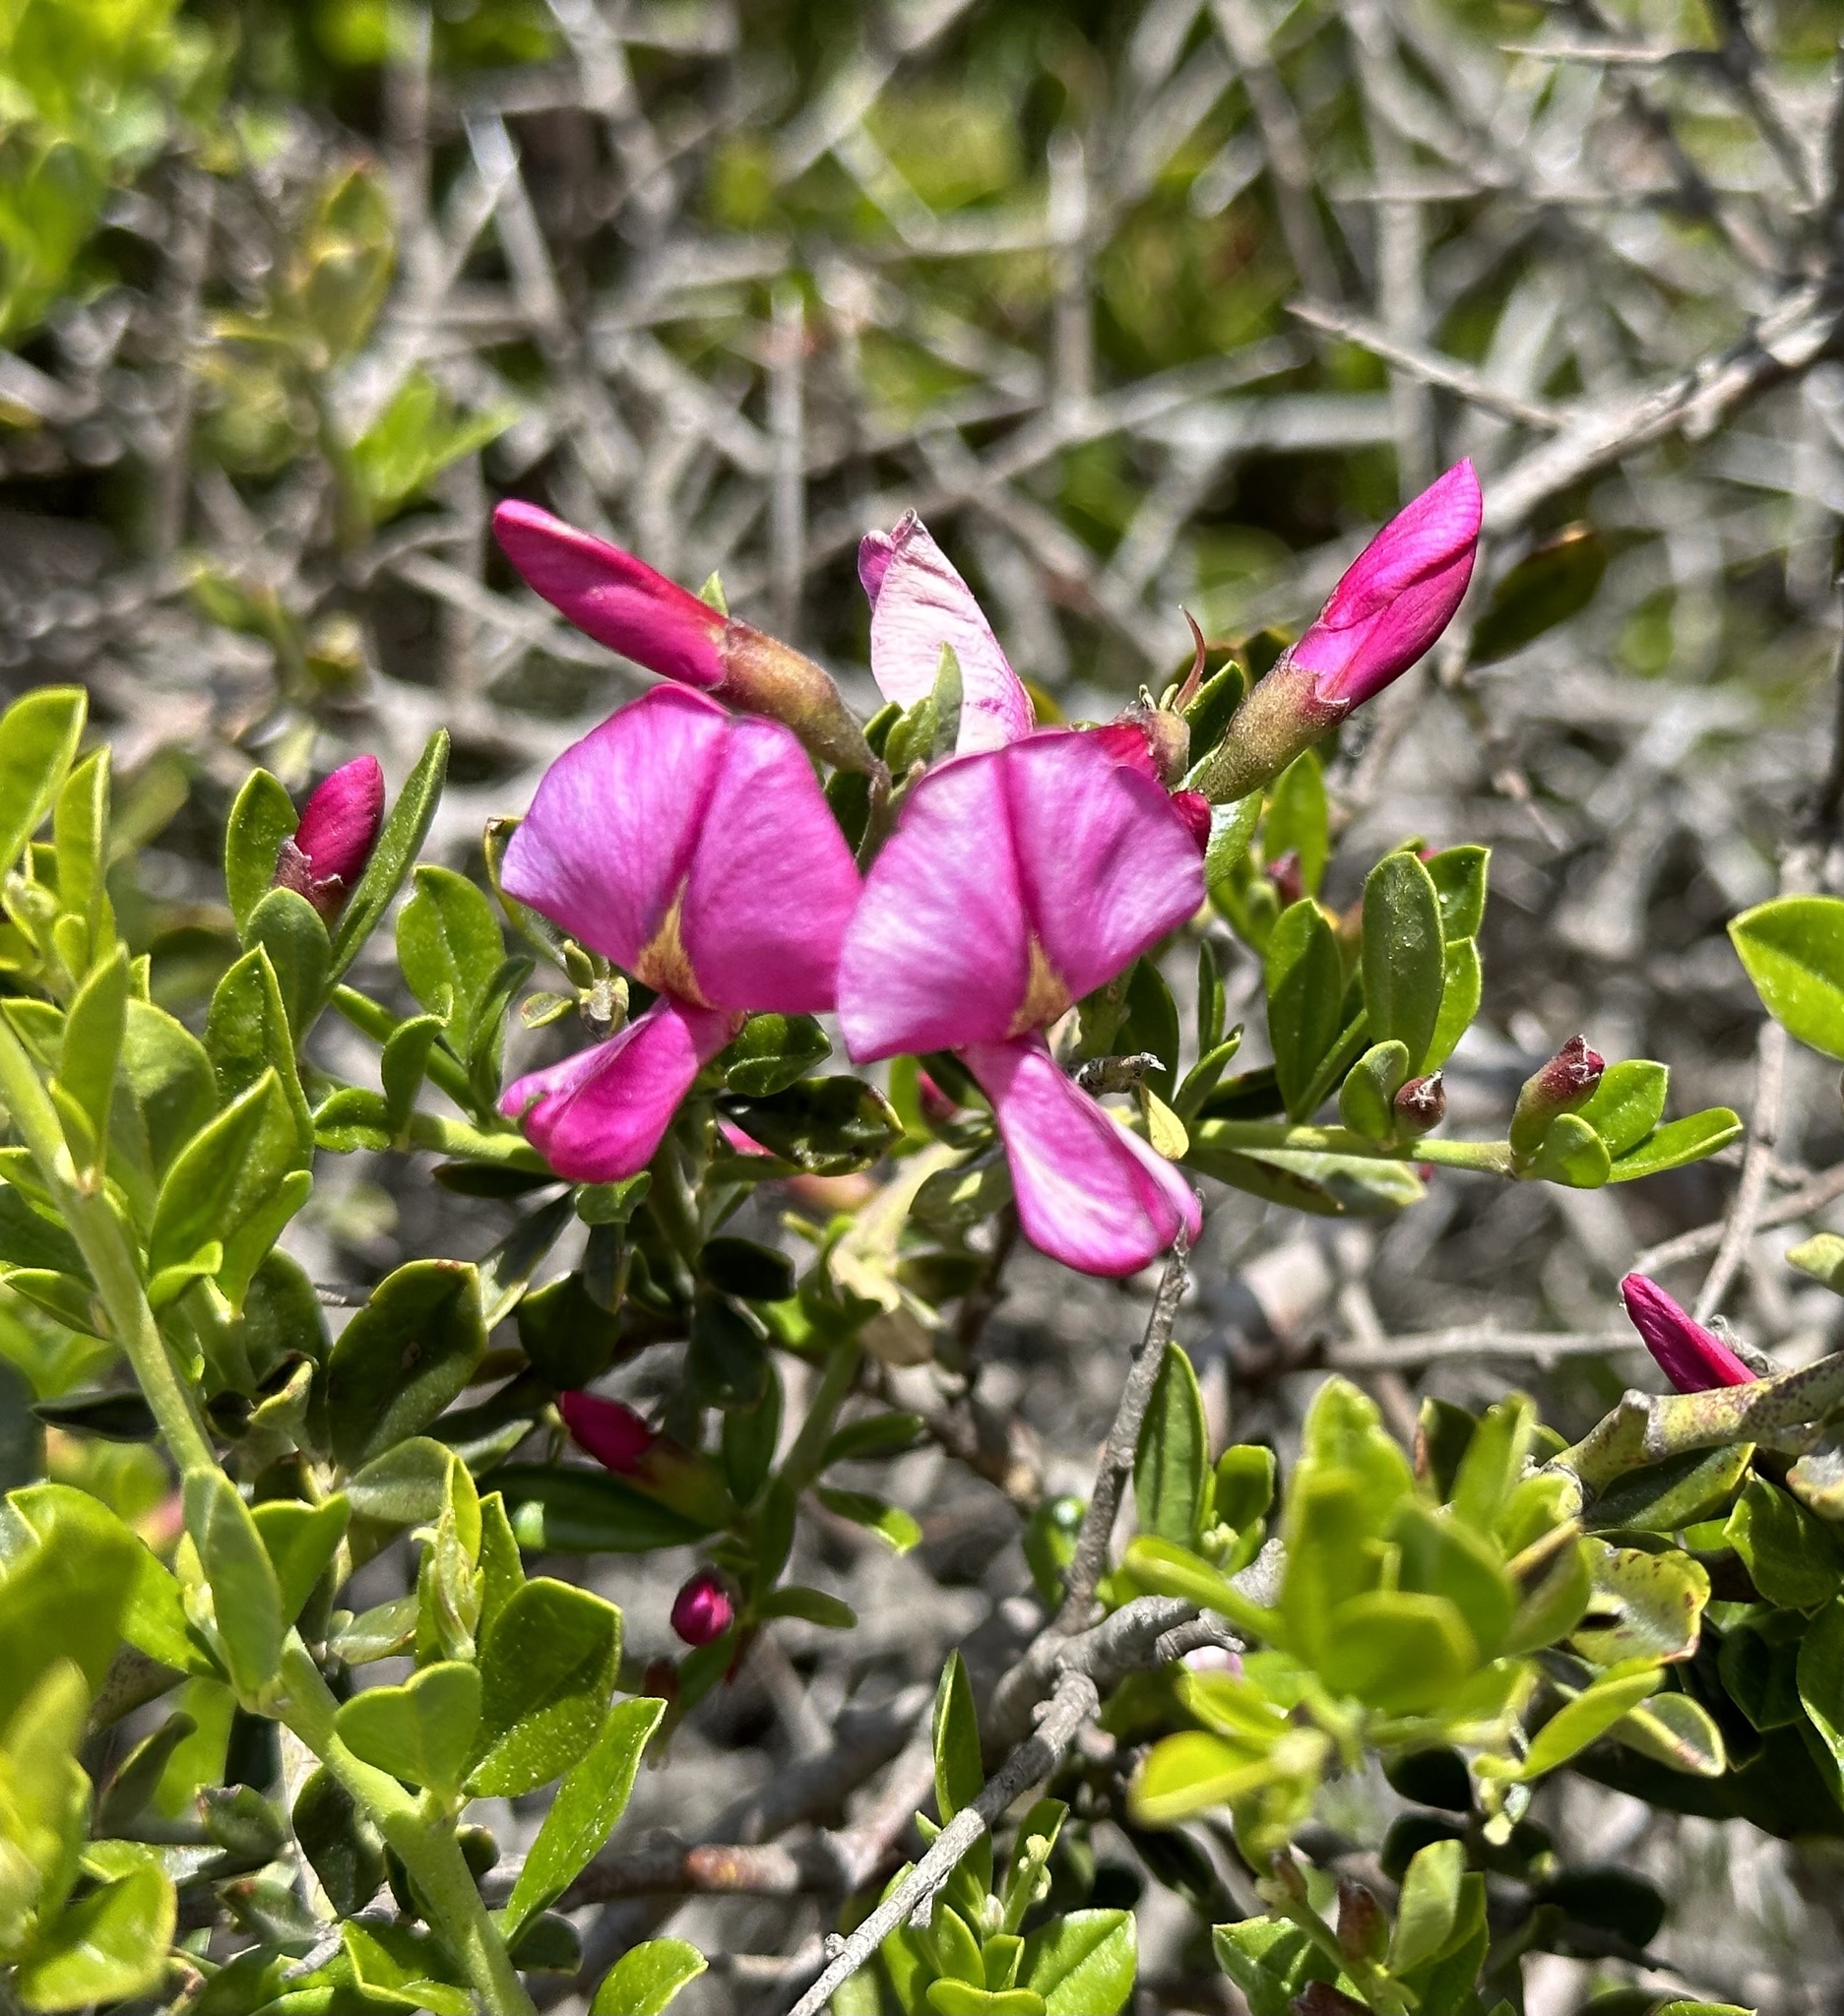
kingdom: Plantae
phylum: Tracheophyta
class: Magnoliopsida
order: Fabales
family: Fabaceae
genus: Pickeringia
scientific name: Pickeringia montana
